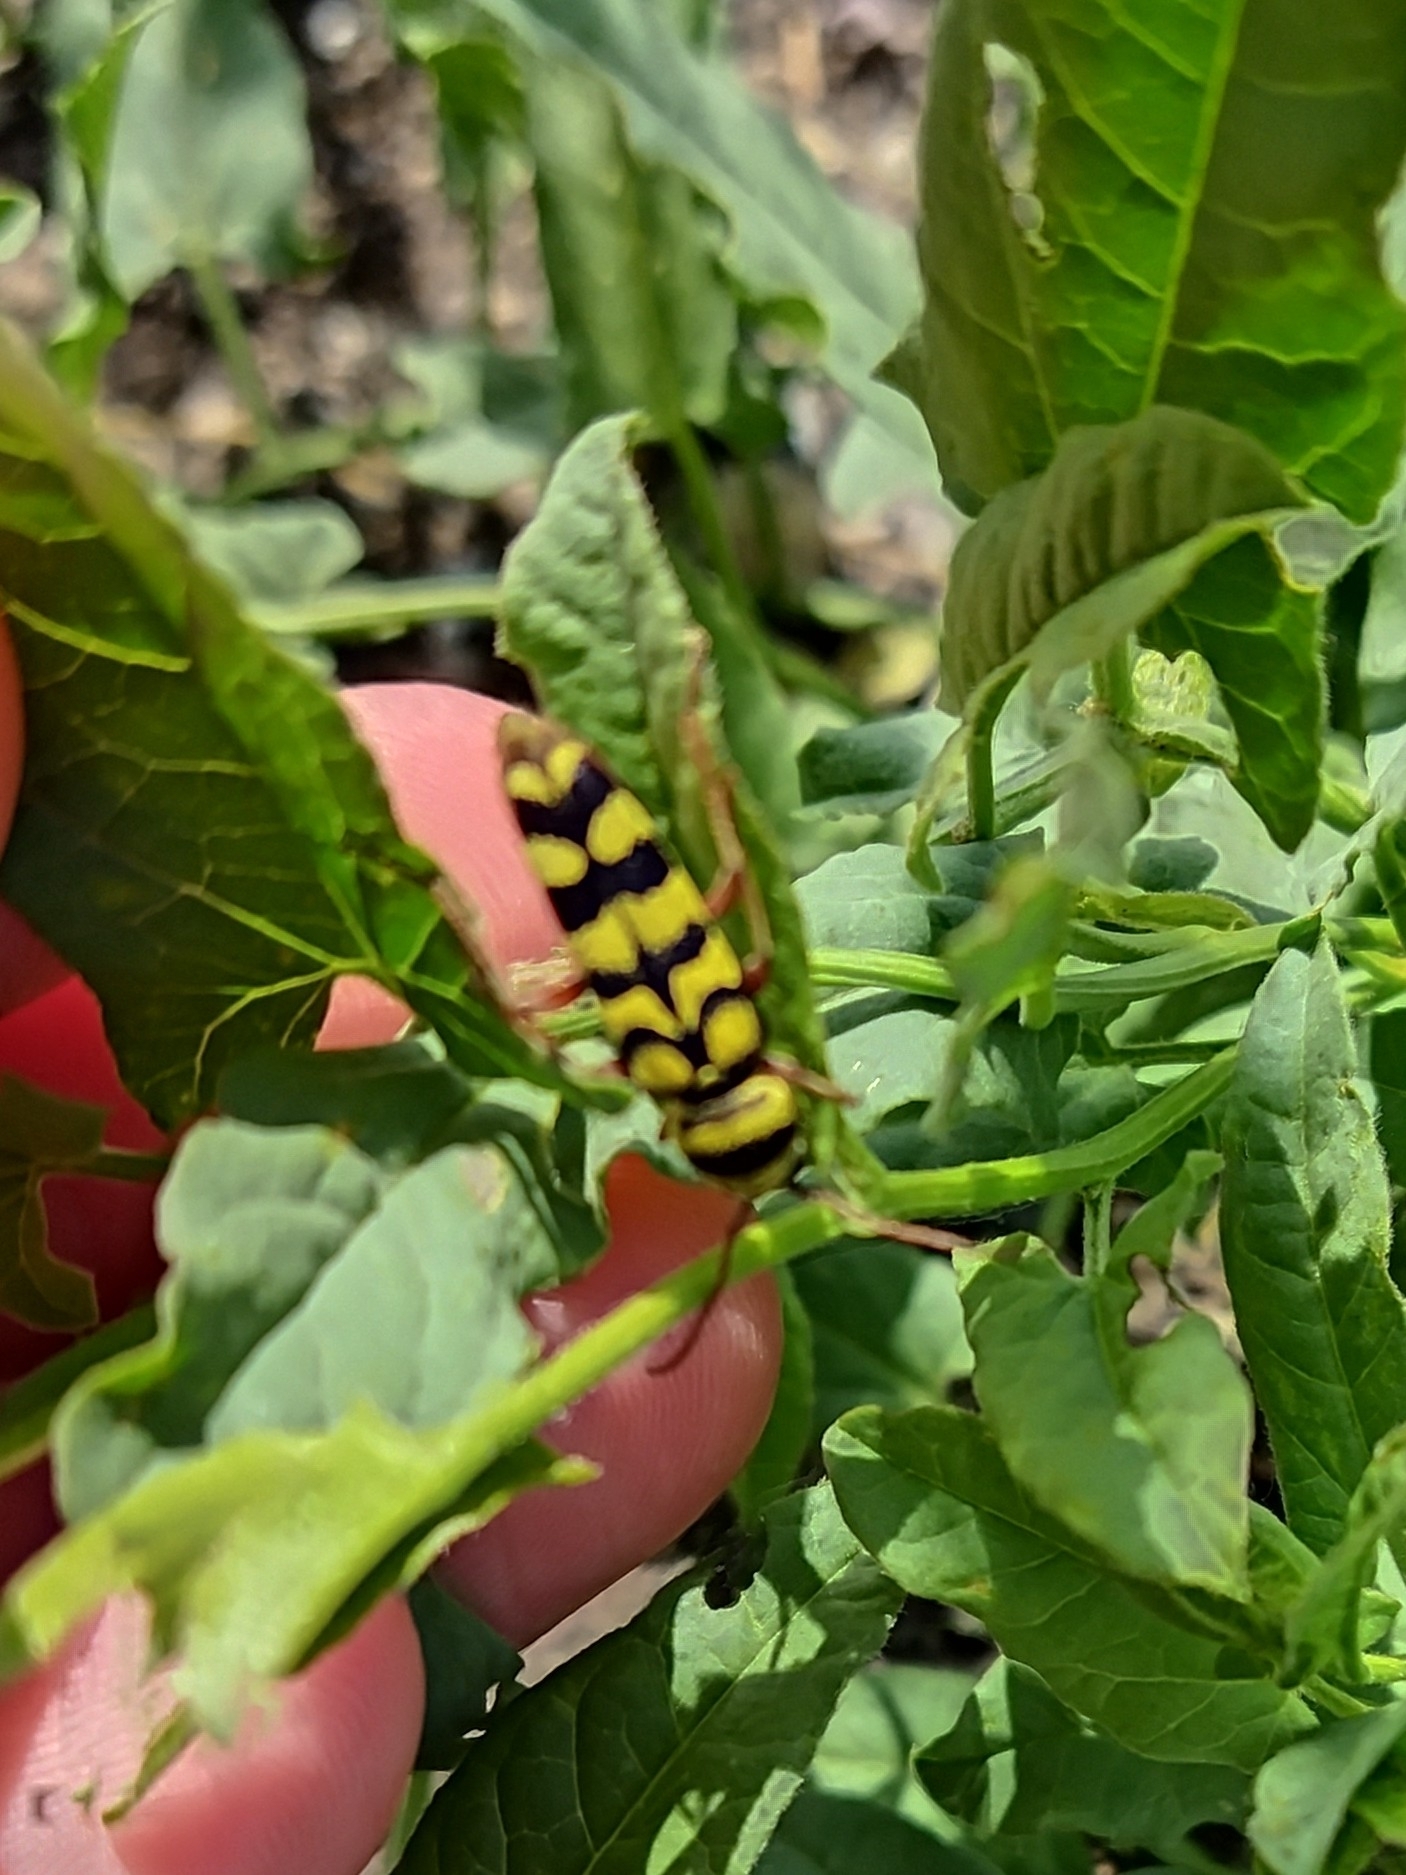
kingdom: Animalia
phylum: Arthropoda
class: Insecta
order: Coleoptera
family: Cerambycidae
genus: Plagionotus
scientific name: Plagionotus floralis
